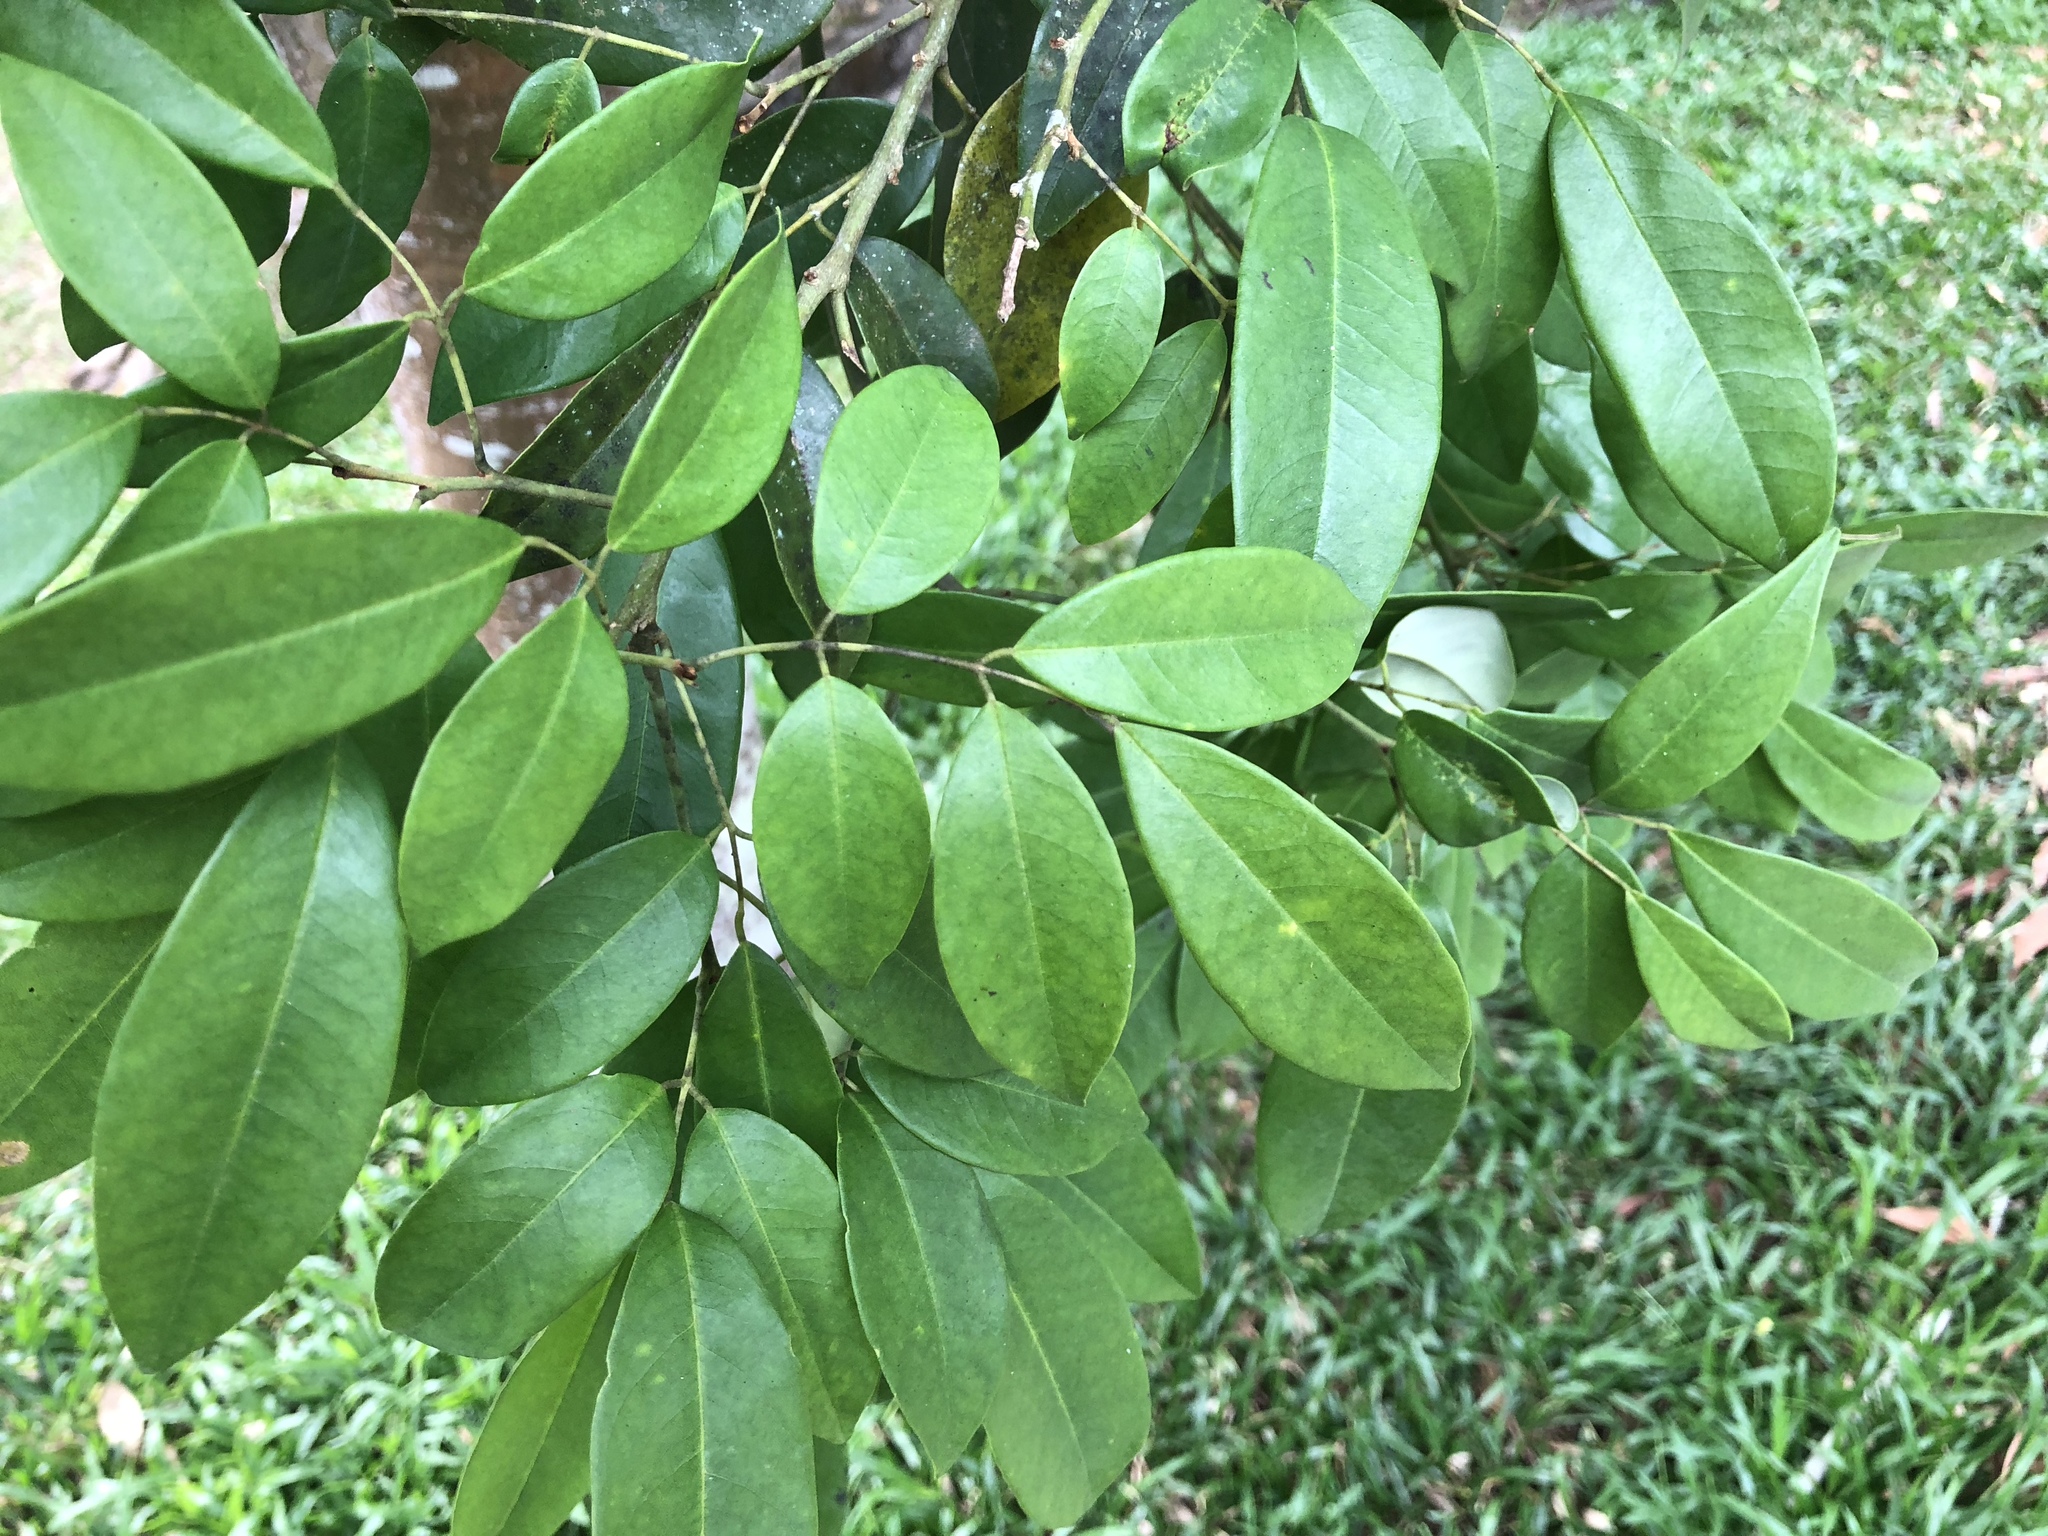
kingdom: Plantae
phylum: Tracheophyta
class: Magnoliopsida
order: Fabales
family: Fabaceae
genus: Ormosia
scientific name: Ormosia formosana
